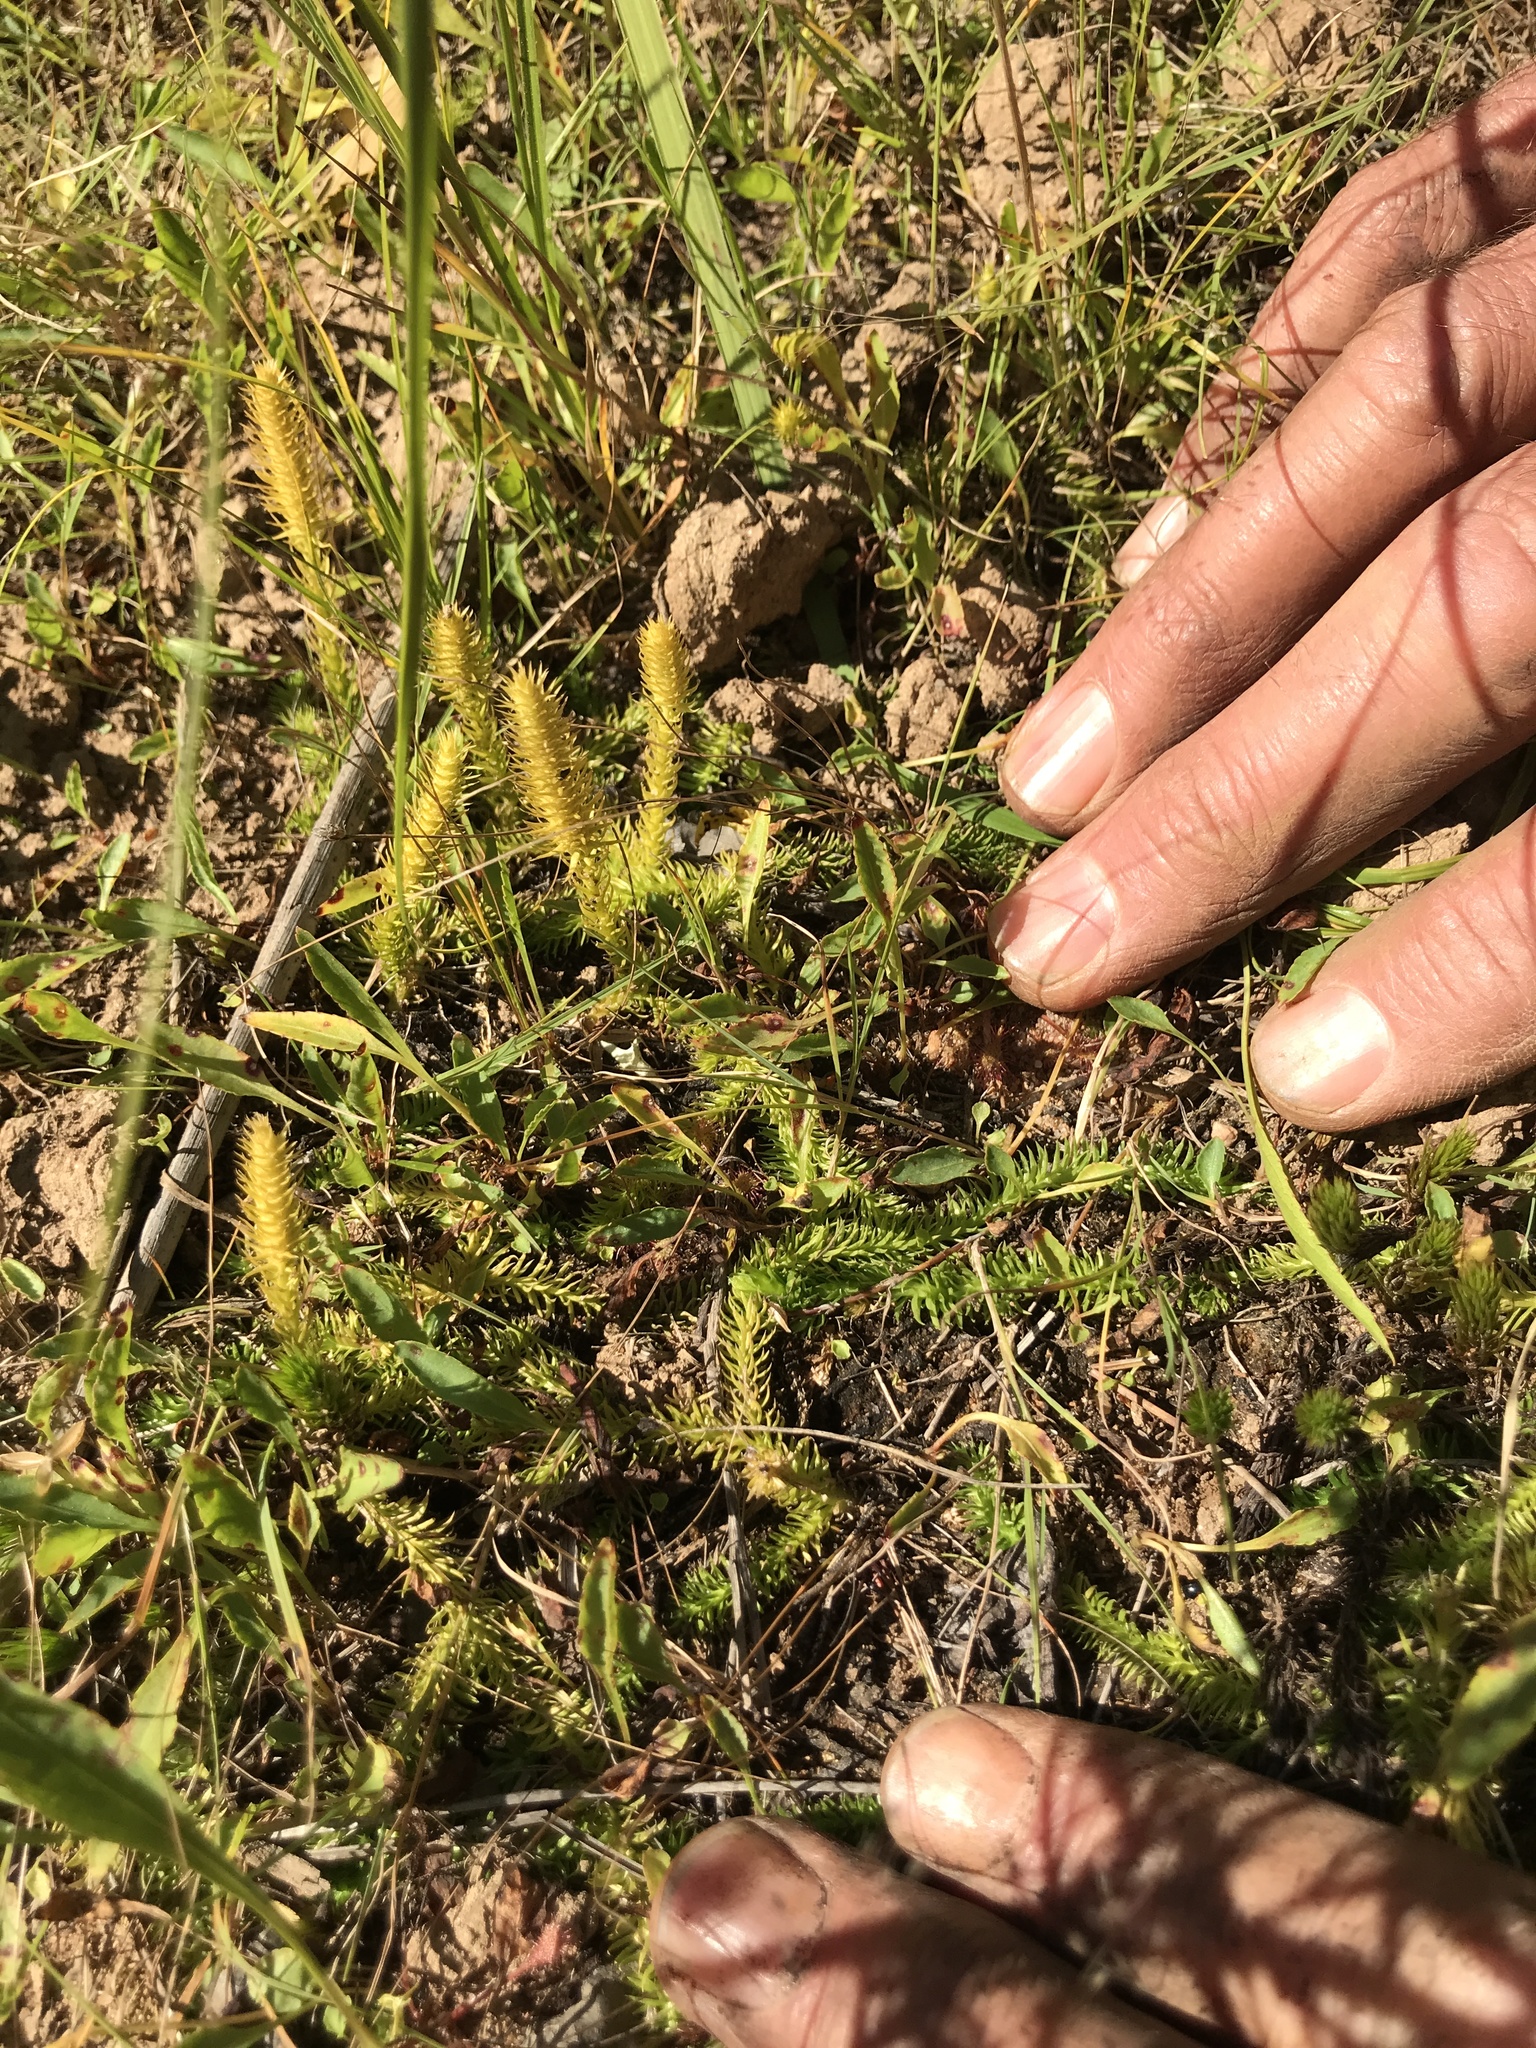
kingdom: Plantae
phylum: Tracheophyta
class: Lycopodiopsida
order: Lycopodiales
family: Lycopodiaceae
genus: Lycopodiella
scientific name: Lycopodiella inundata
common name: Marsh clubmoss
